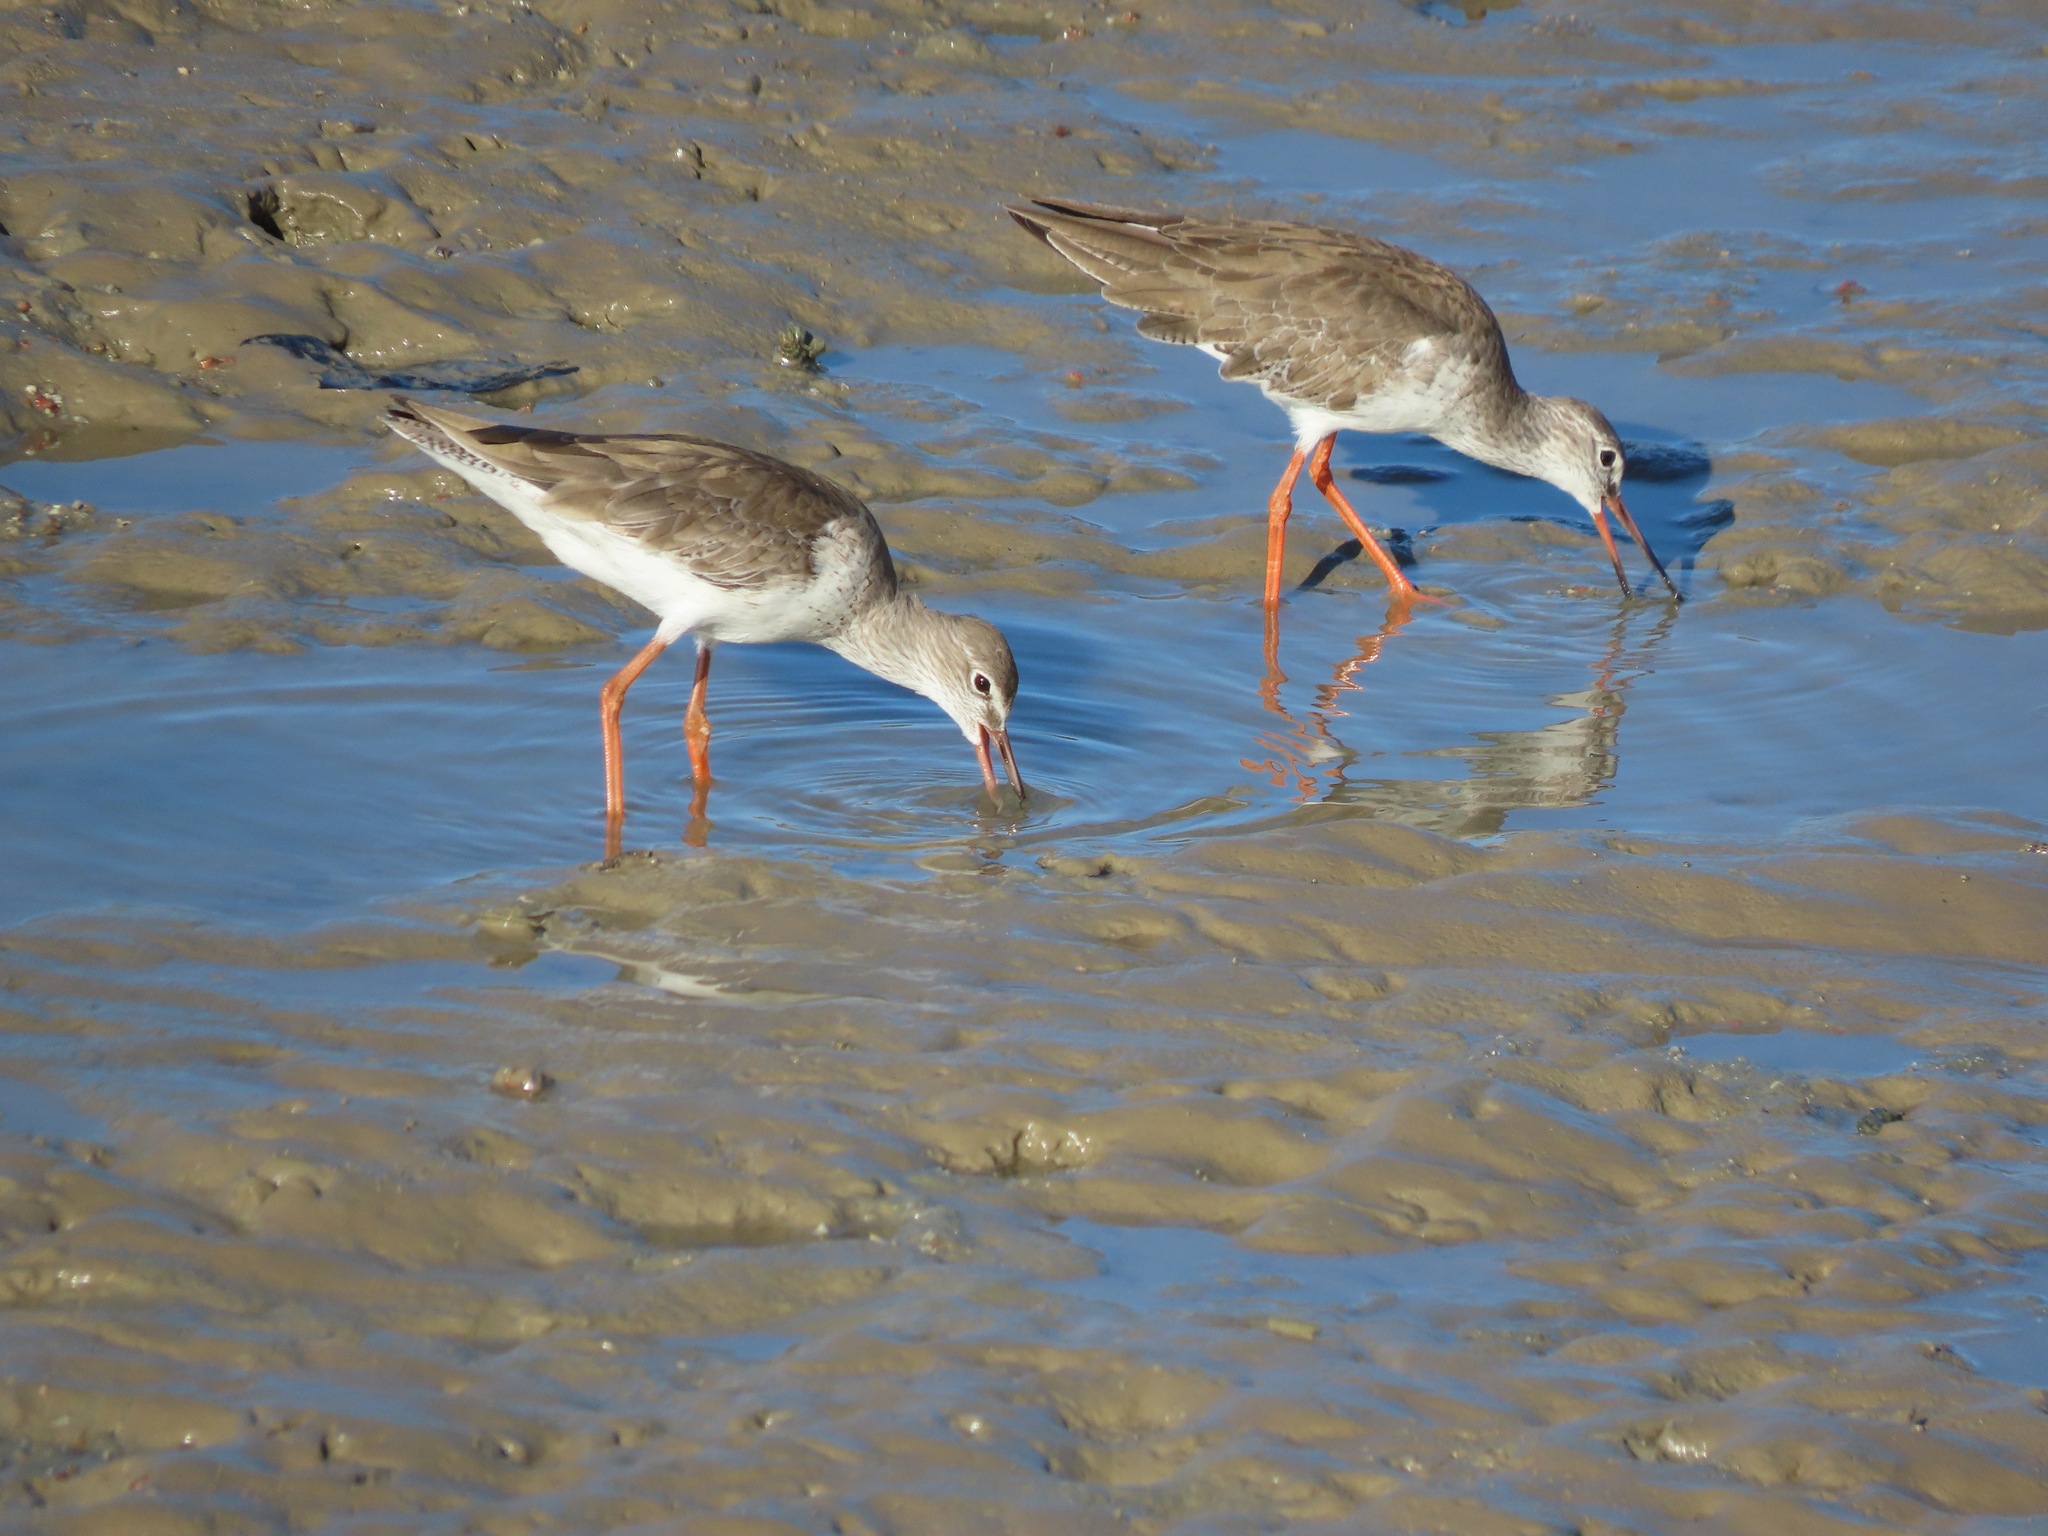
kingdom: Animalia
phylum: Chordata
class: Aves
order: Charadriiformes
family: Scolopacidae
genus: Tringa
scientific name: Tringa totanus
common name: Common redshank
